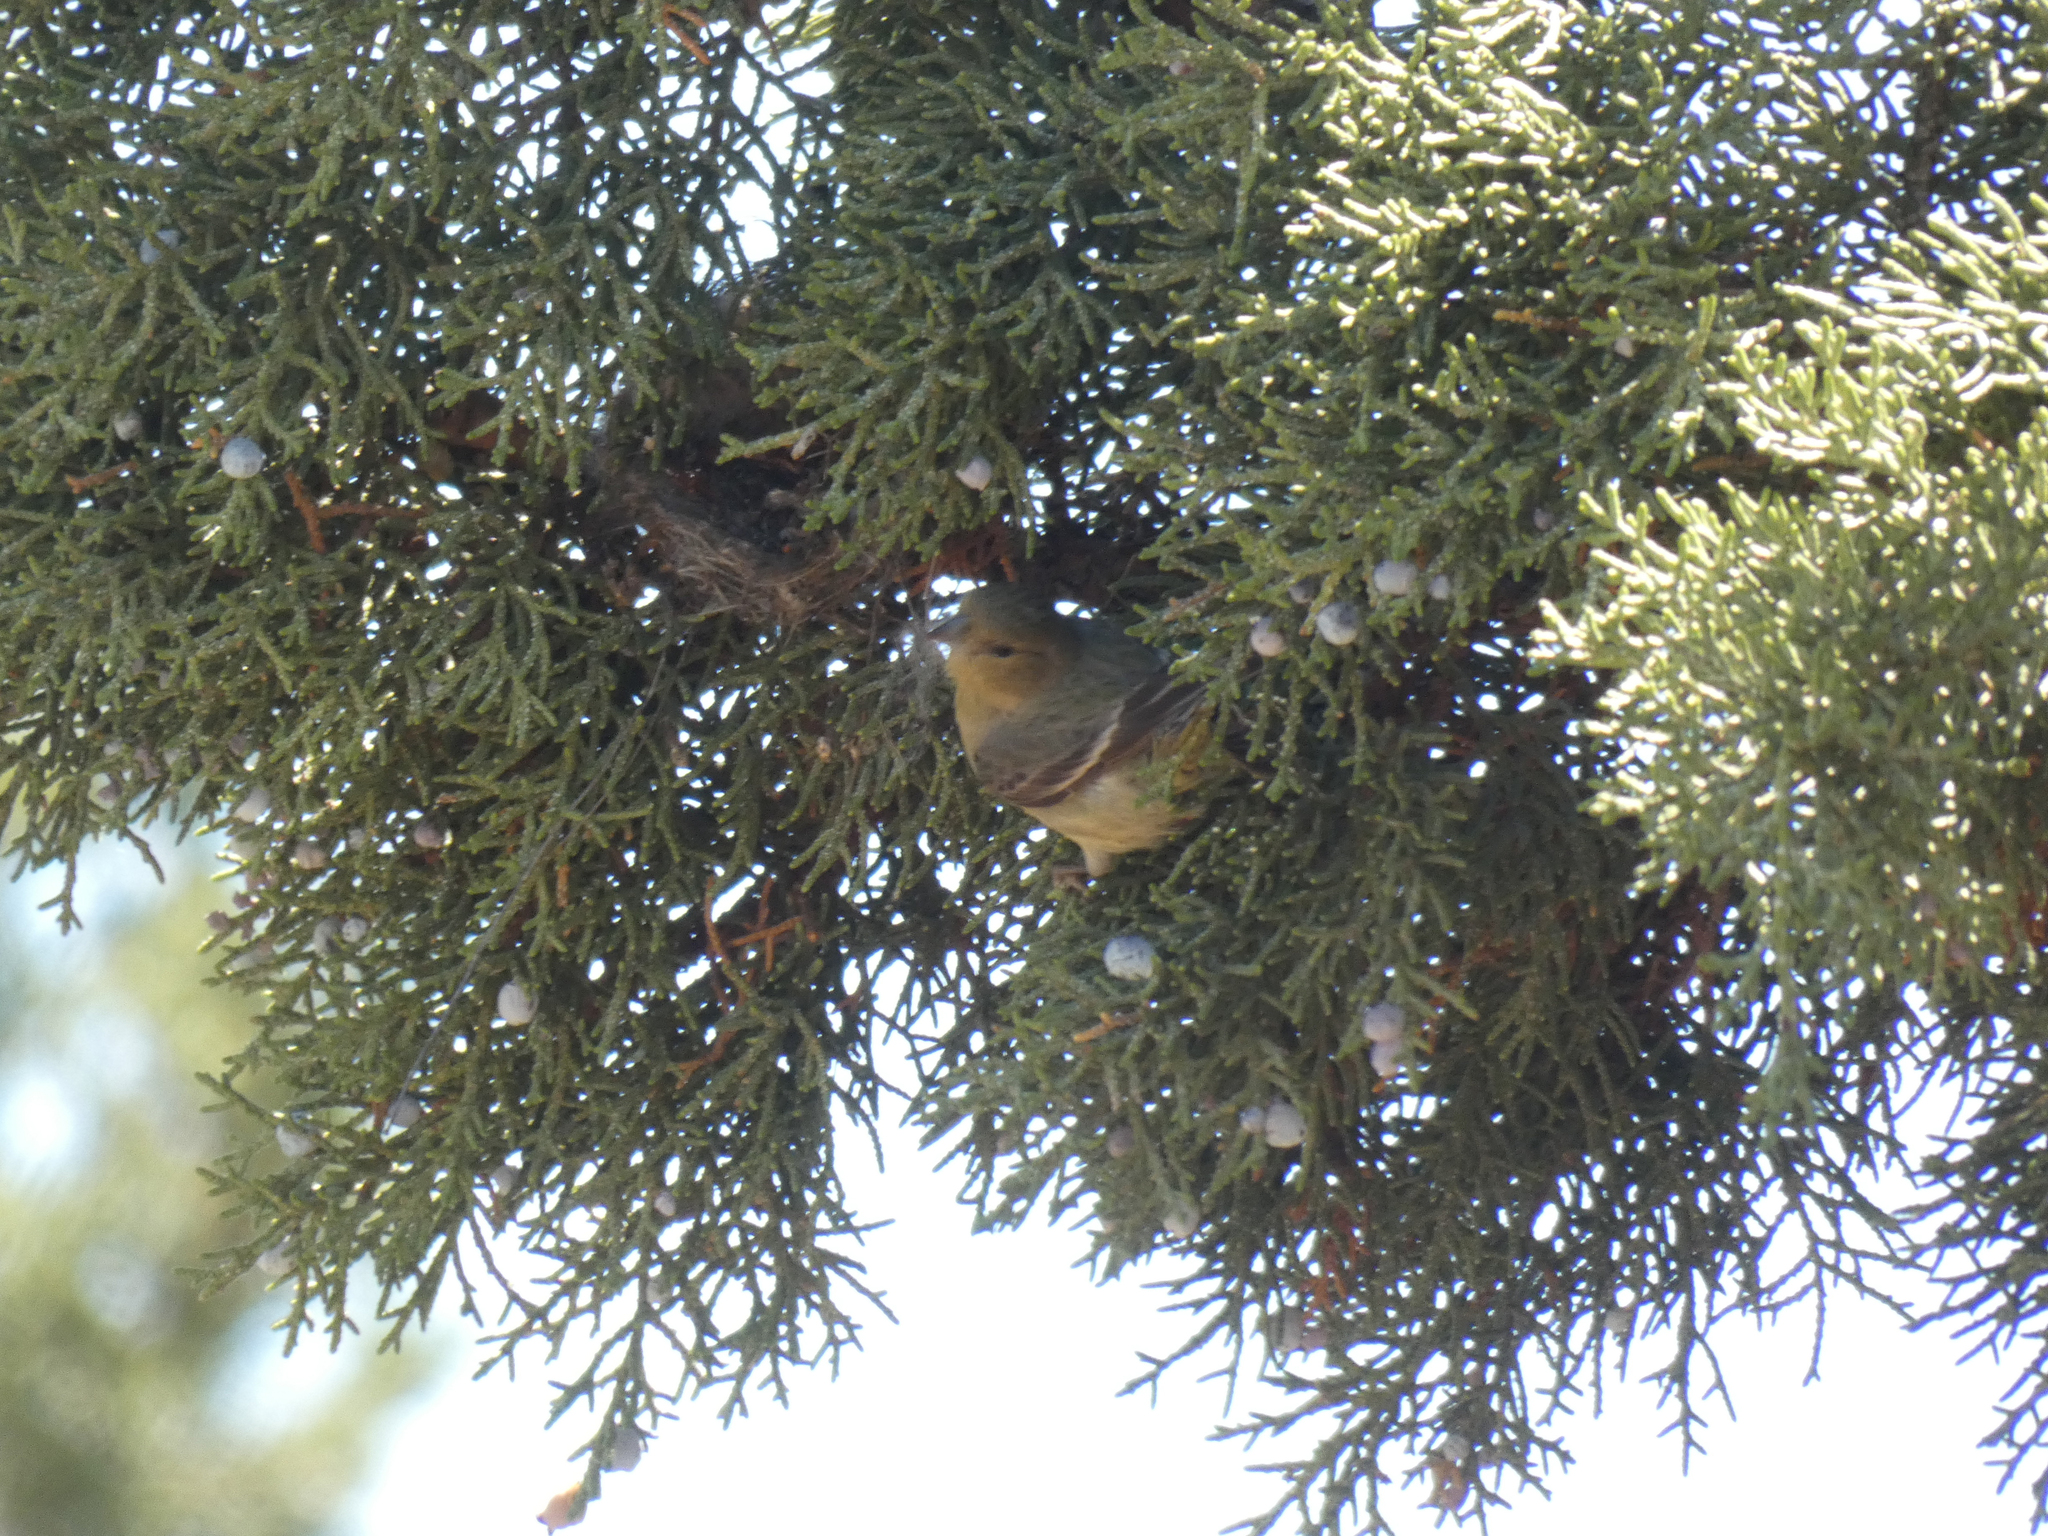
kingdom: Animalia
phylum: Chordata
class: Aves
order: Passeriformes
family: Fringillidae
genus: Spinus
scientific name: Spinus psaltria
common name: Lesser goldfinch
